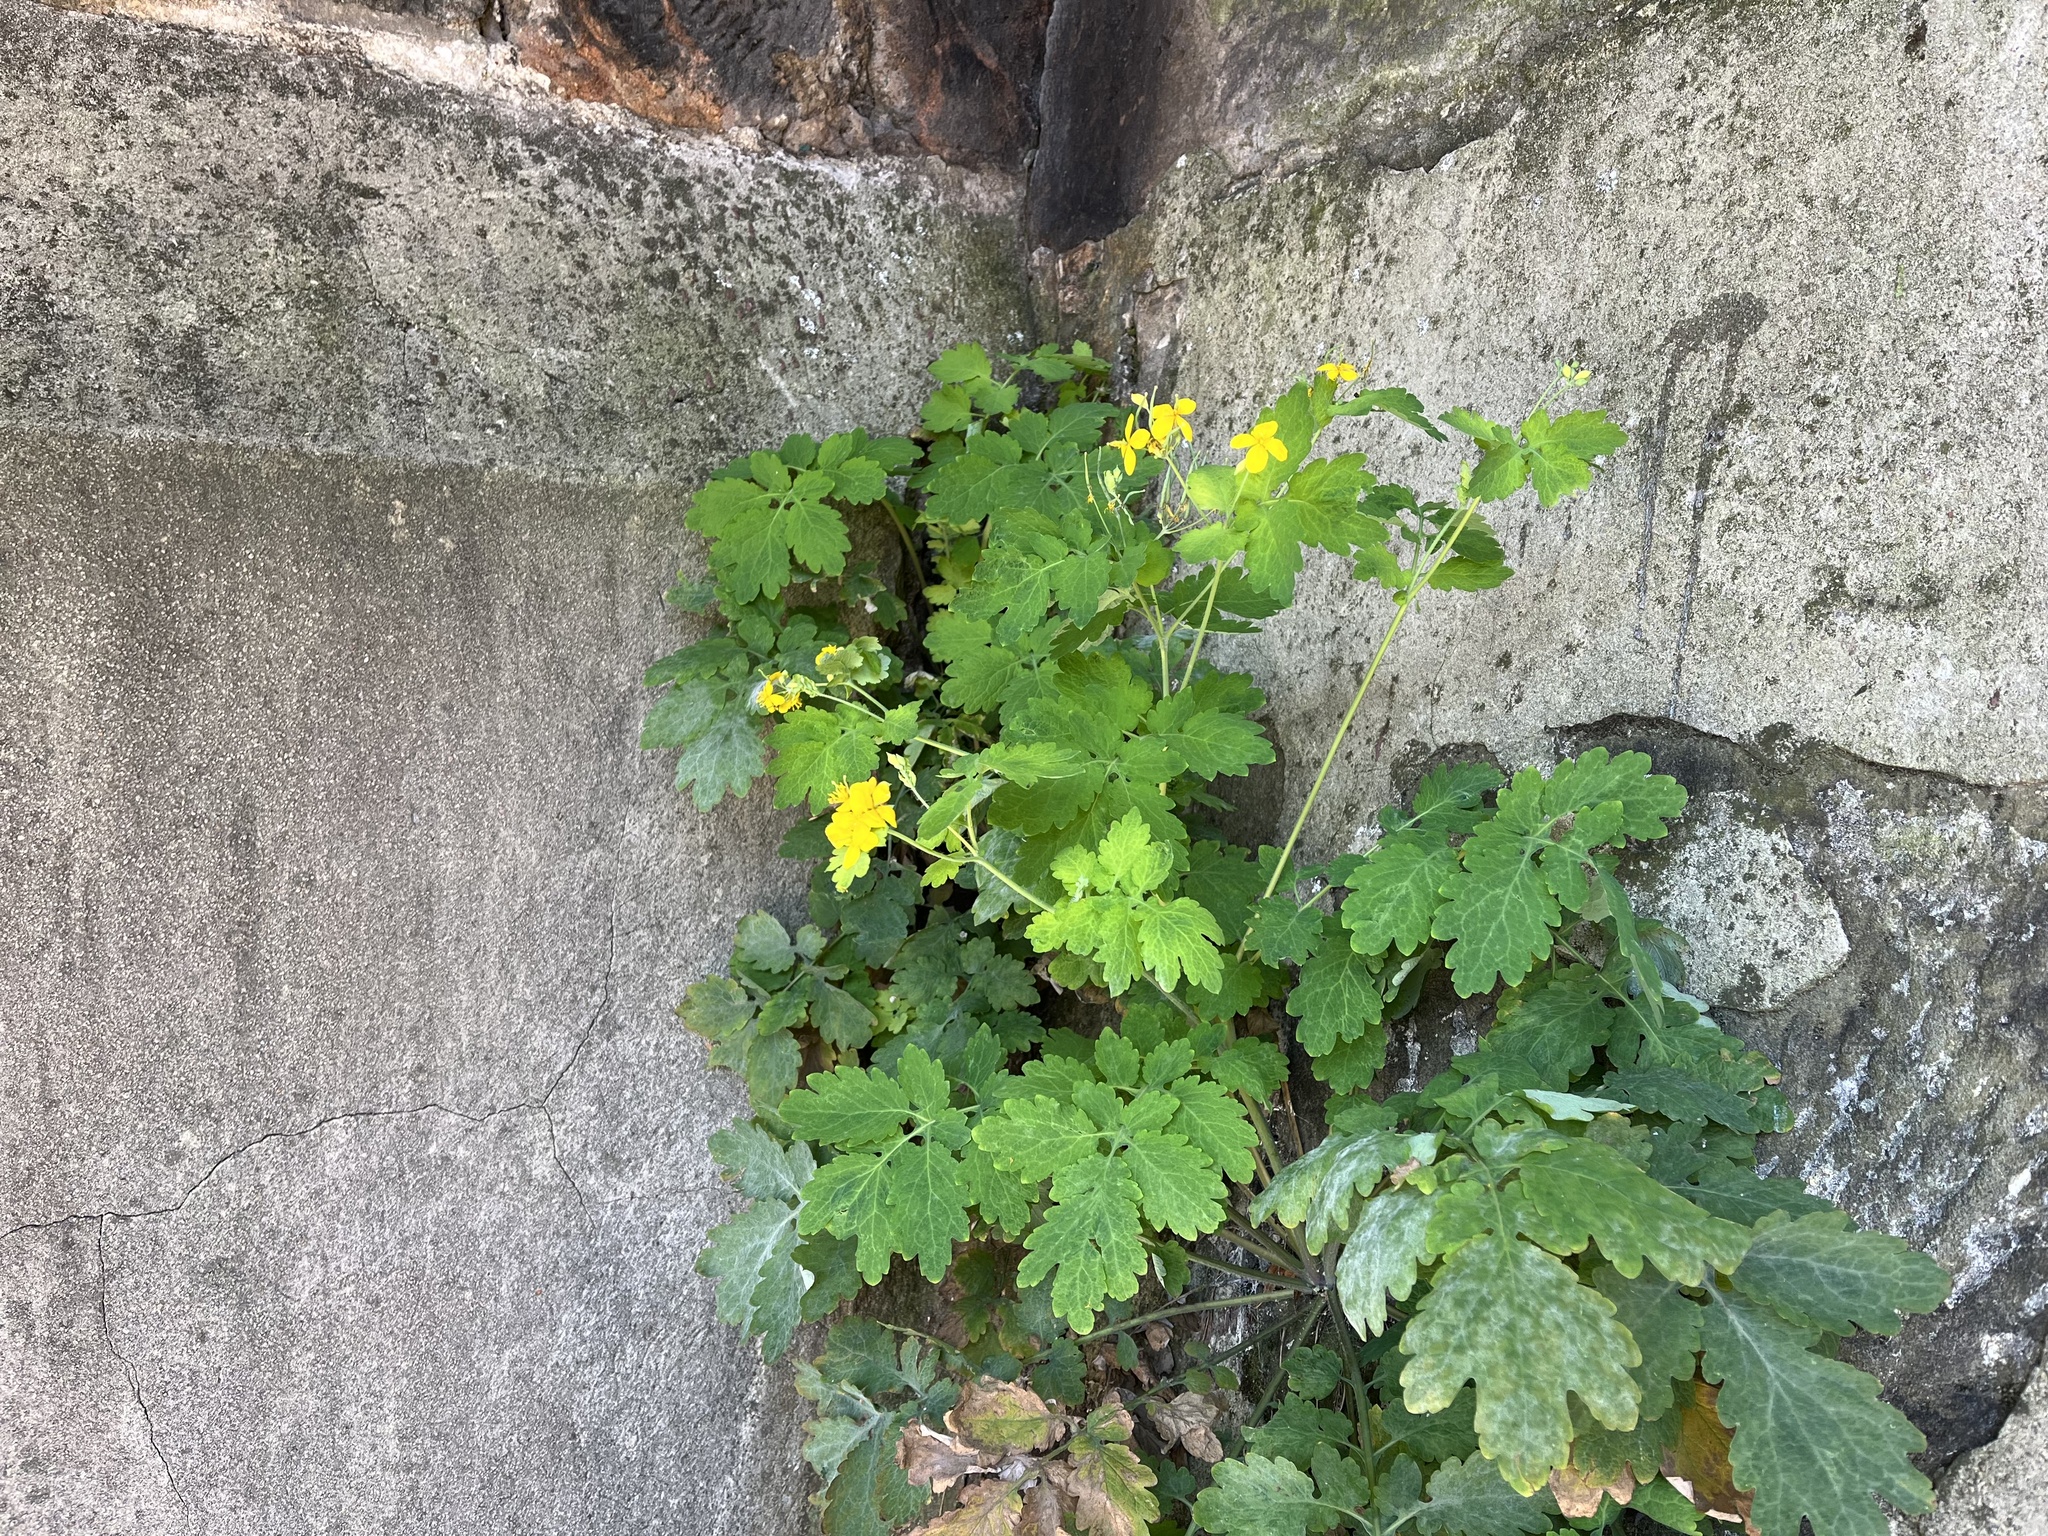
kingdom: Plantae
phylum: Tracheophyta
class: Magnoliopsida
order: Ranunculales
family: Papaveraceae
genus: Chelidonium
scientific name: Chelidonium majus
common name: Greater celandine
